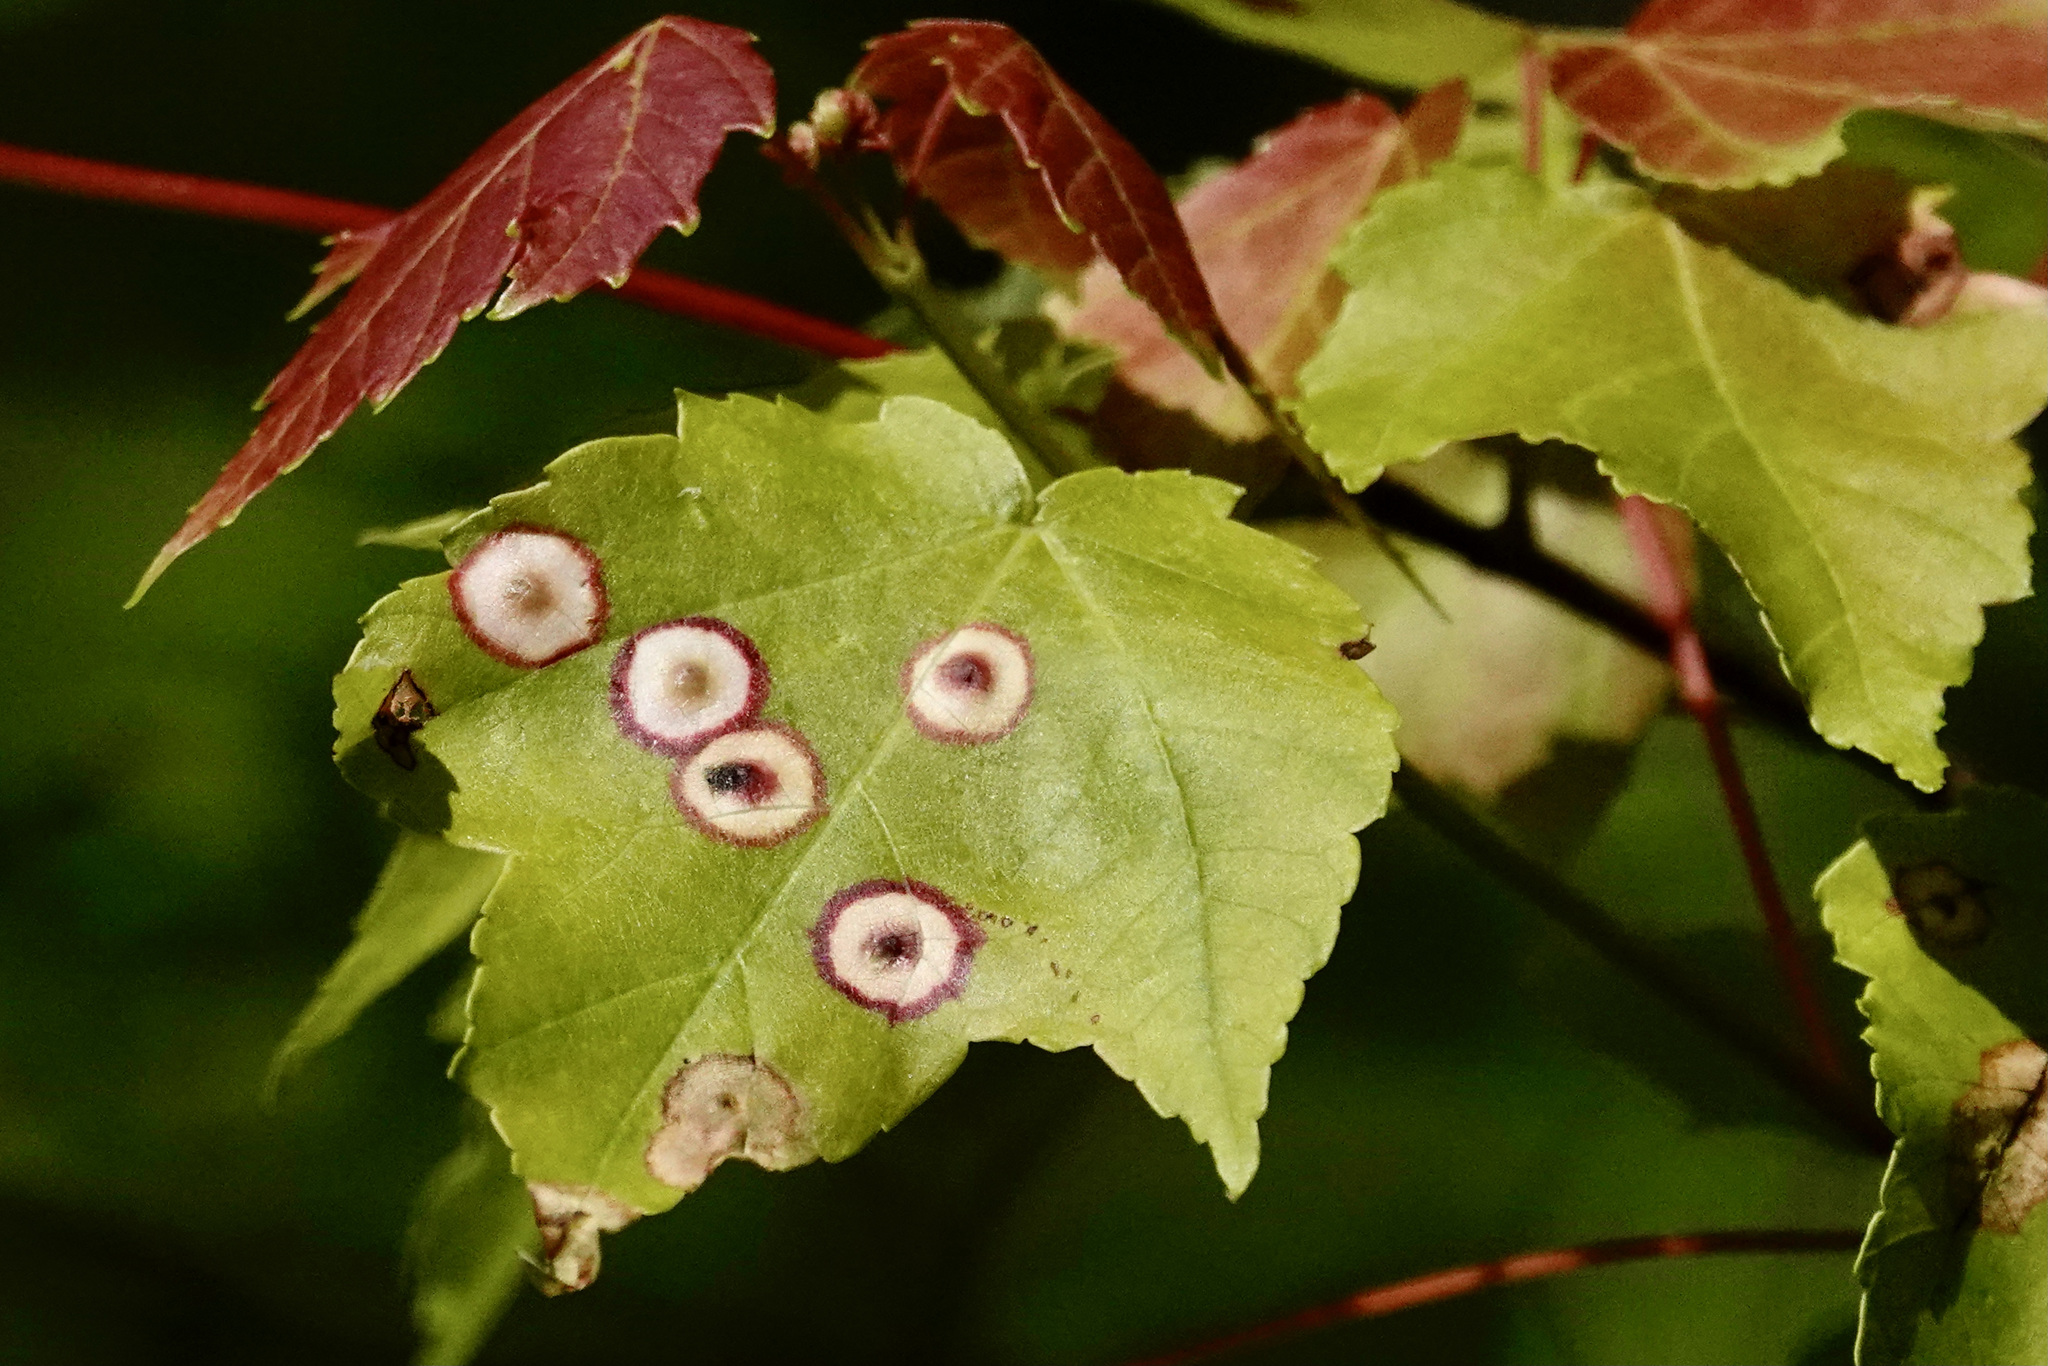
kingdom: Animalia
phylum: Arthropoda
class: Insecta
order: Diptera
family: Cecidomyiidae
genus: Acericecis
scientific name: Acericecis ocellaris
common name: Ocellate gall midge
